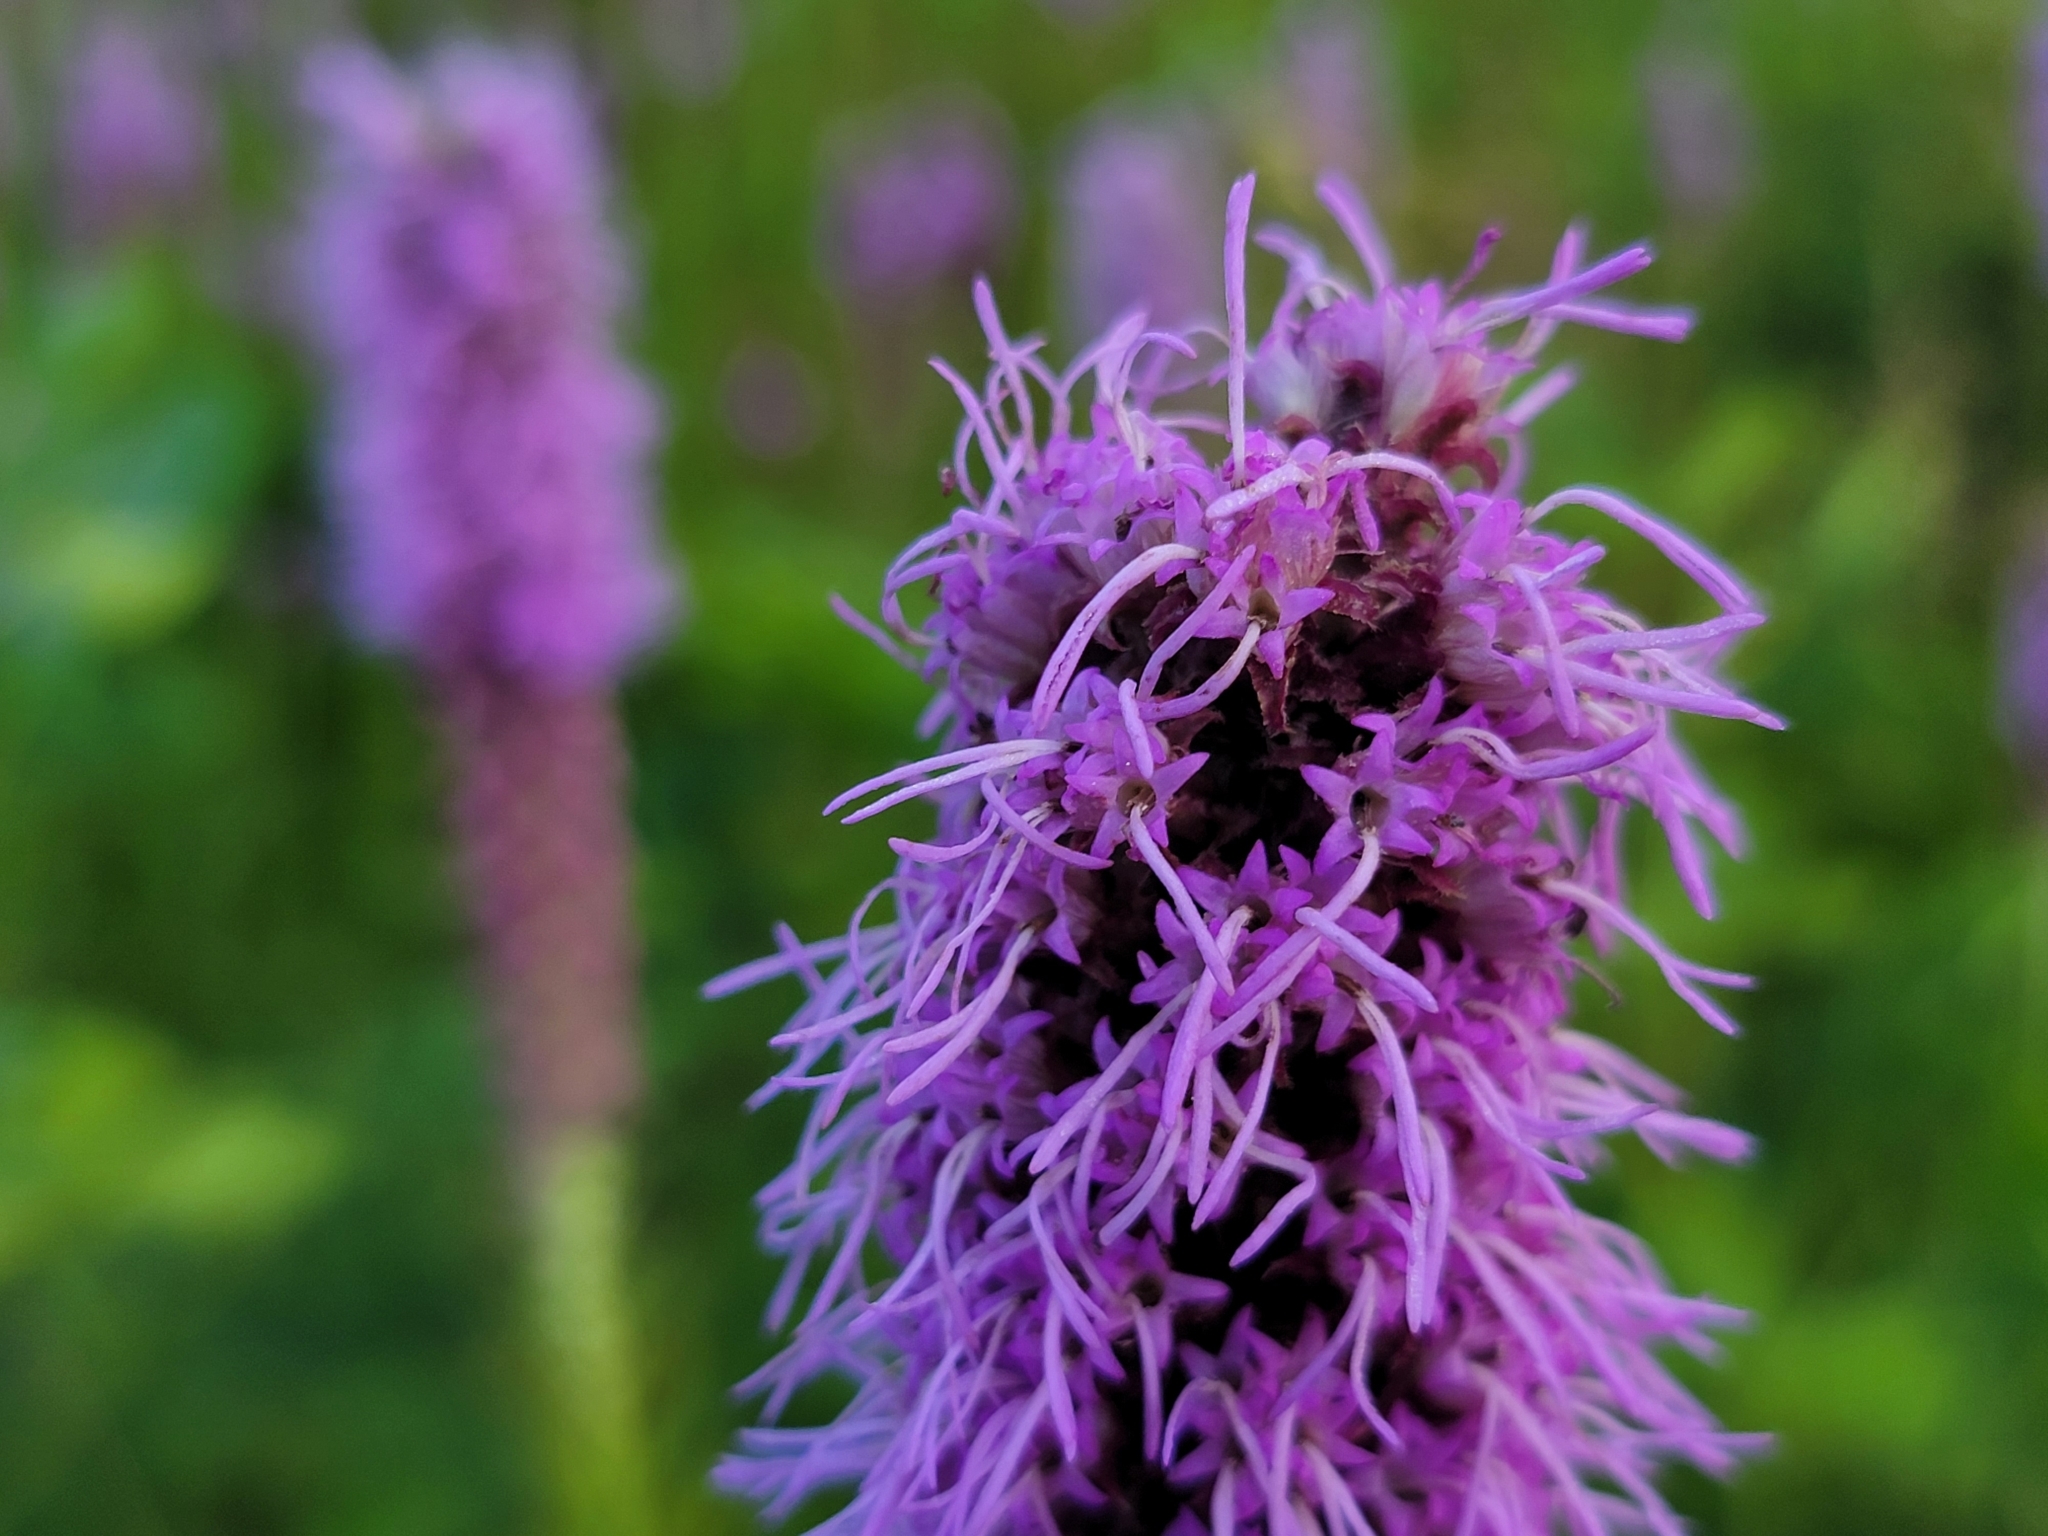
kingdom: Plantae
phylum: Tracheophyta
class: Magnoliopsida
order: Asterales
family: Asteraceae
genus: Liatris
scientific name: Liatris pycnostachya
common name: Cattail gayfeather
